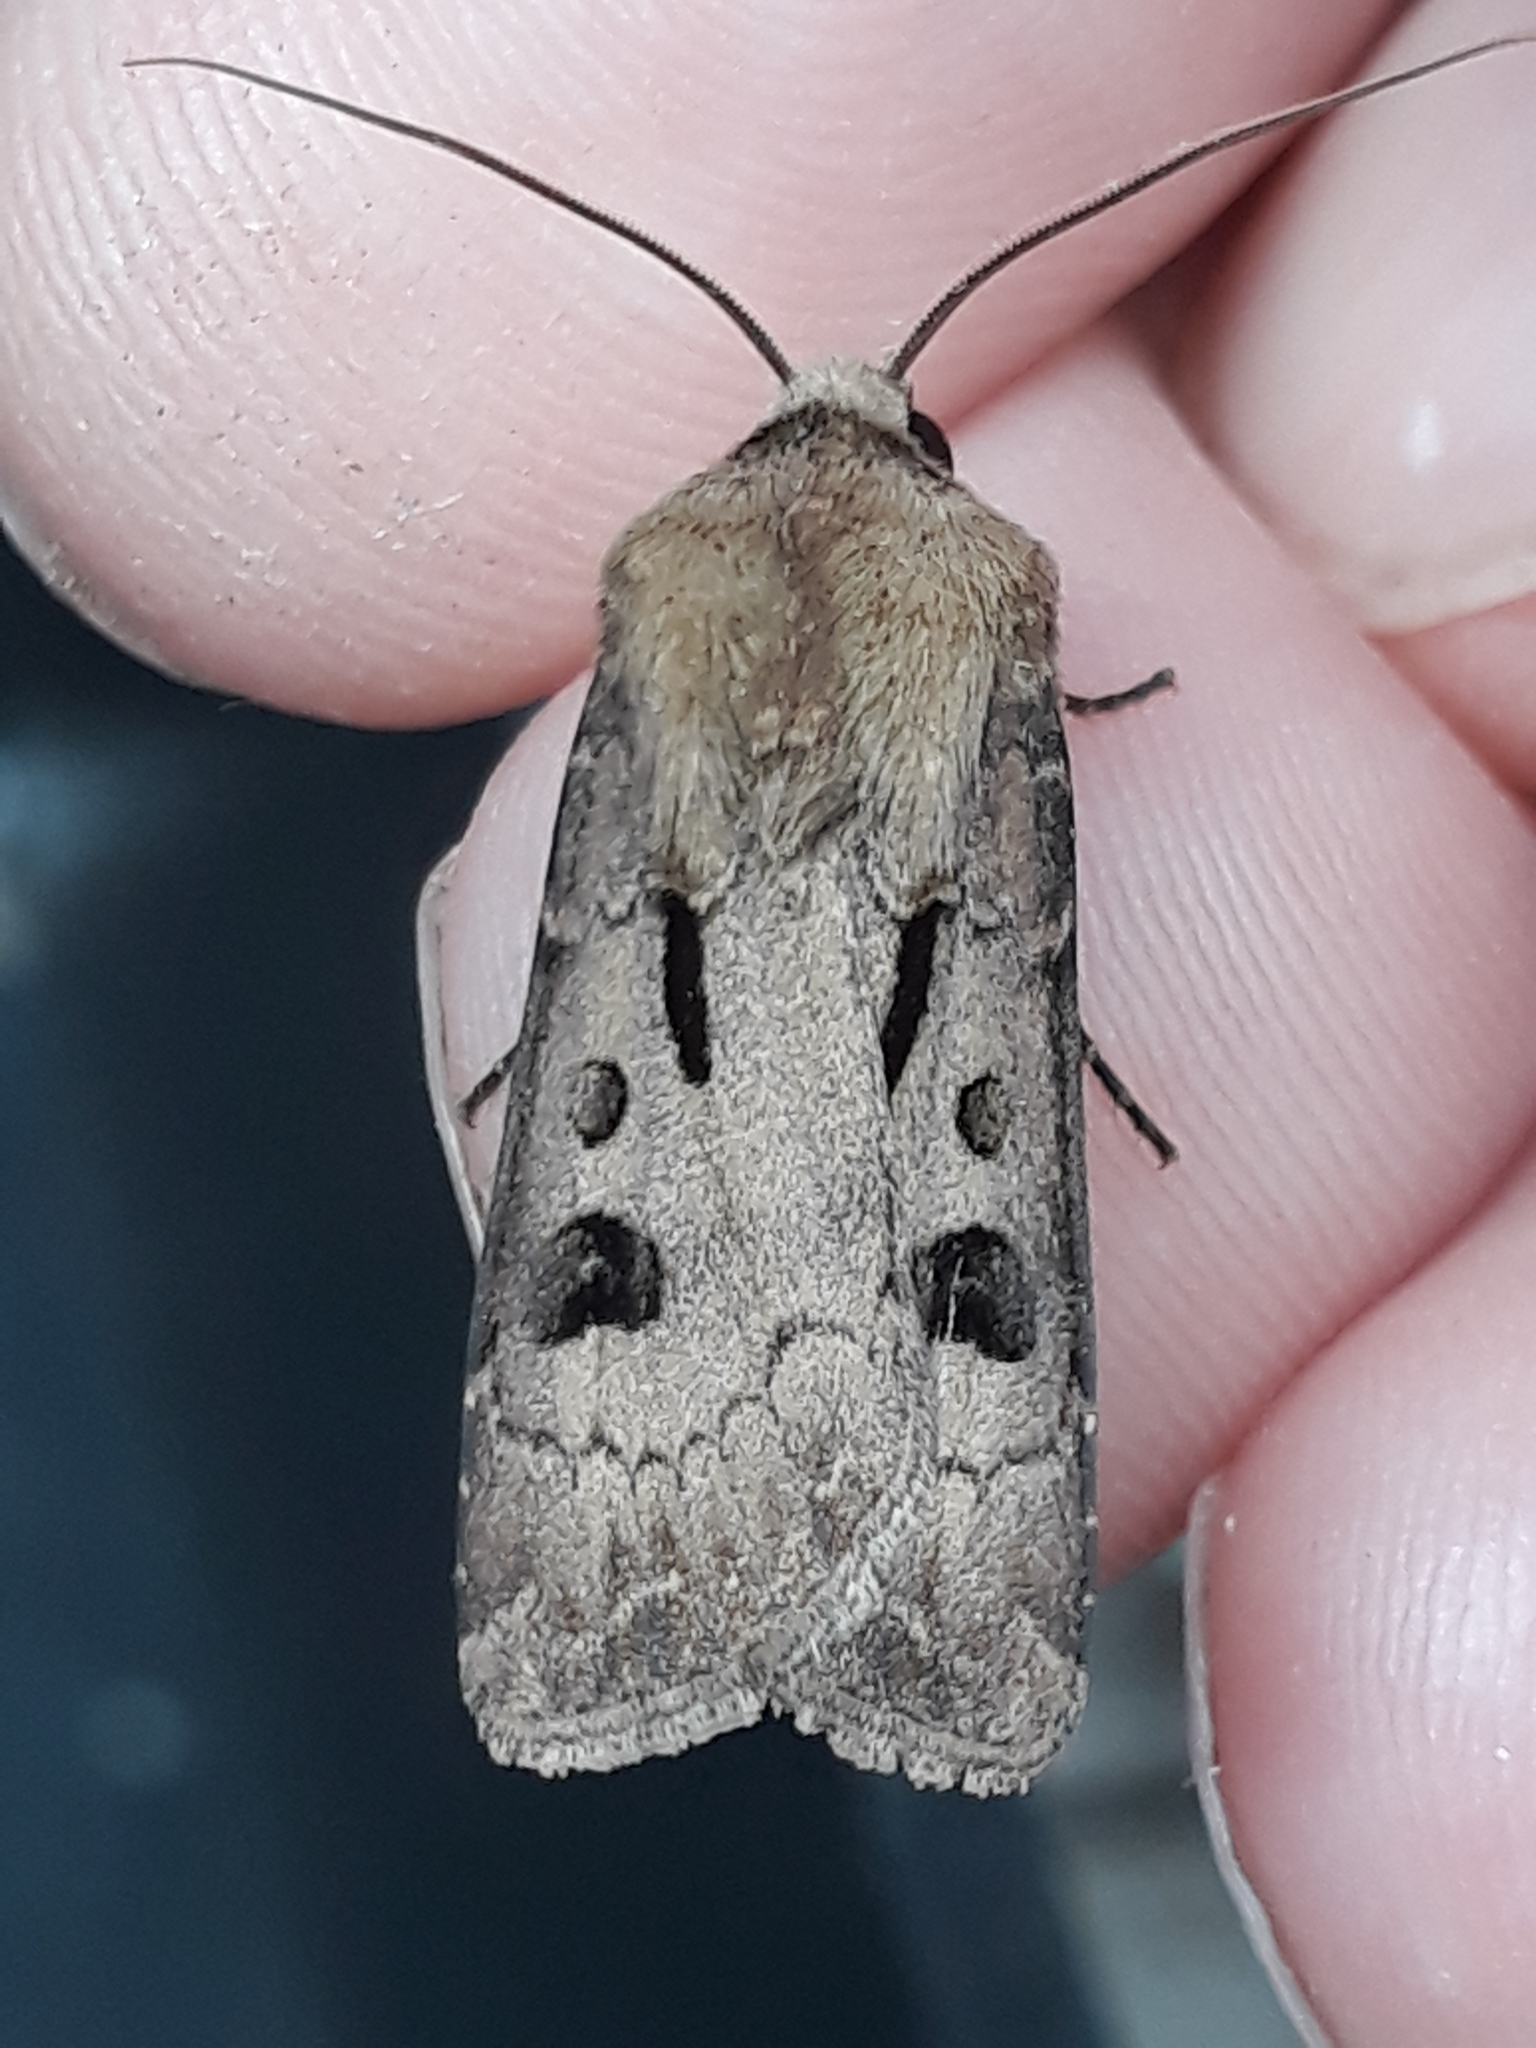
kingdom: Animalia
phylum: Arthropoda
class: Insecta
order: Lepidoptera
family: Noctuidae
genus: Agrotis
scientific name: Agrotis exclamationis
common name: Heart and dart
